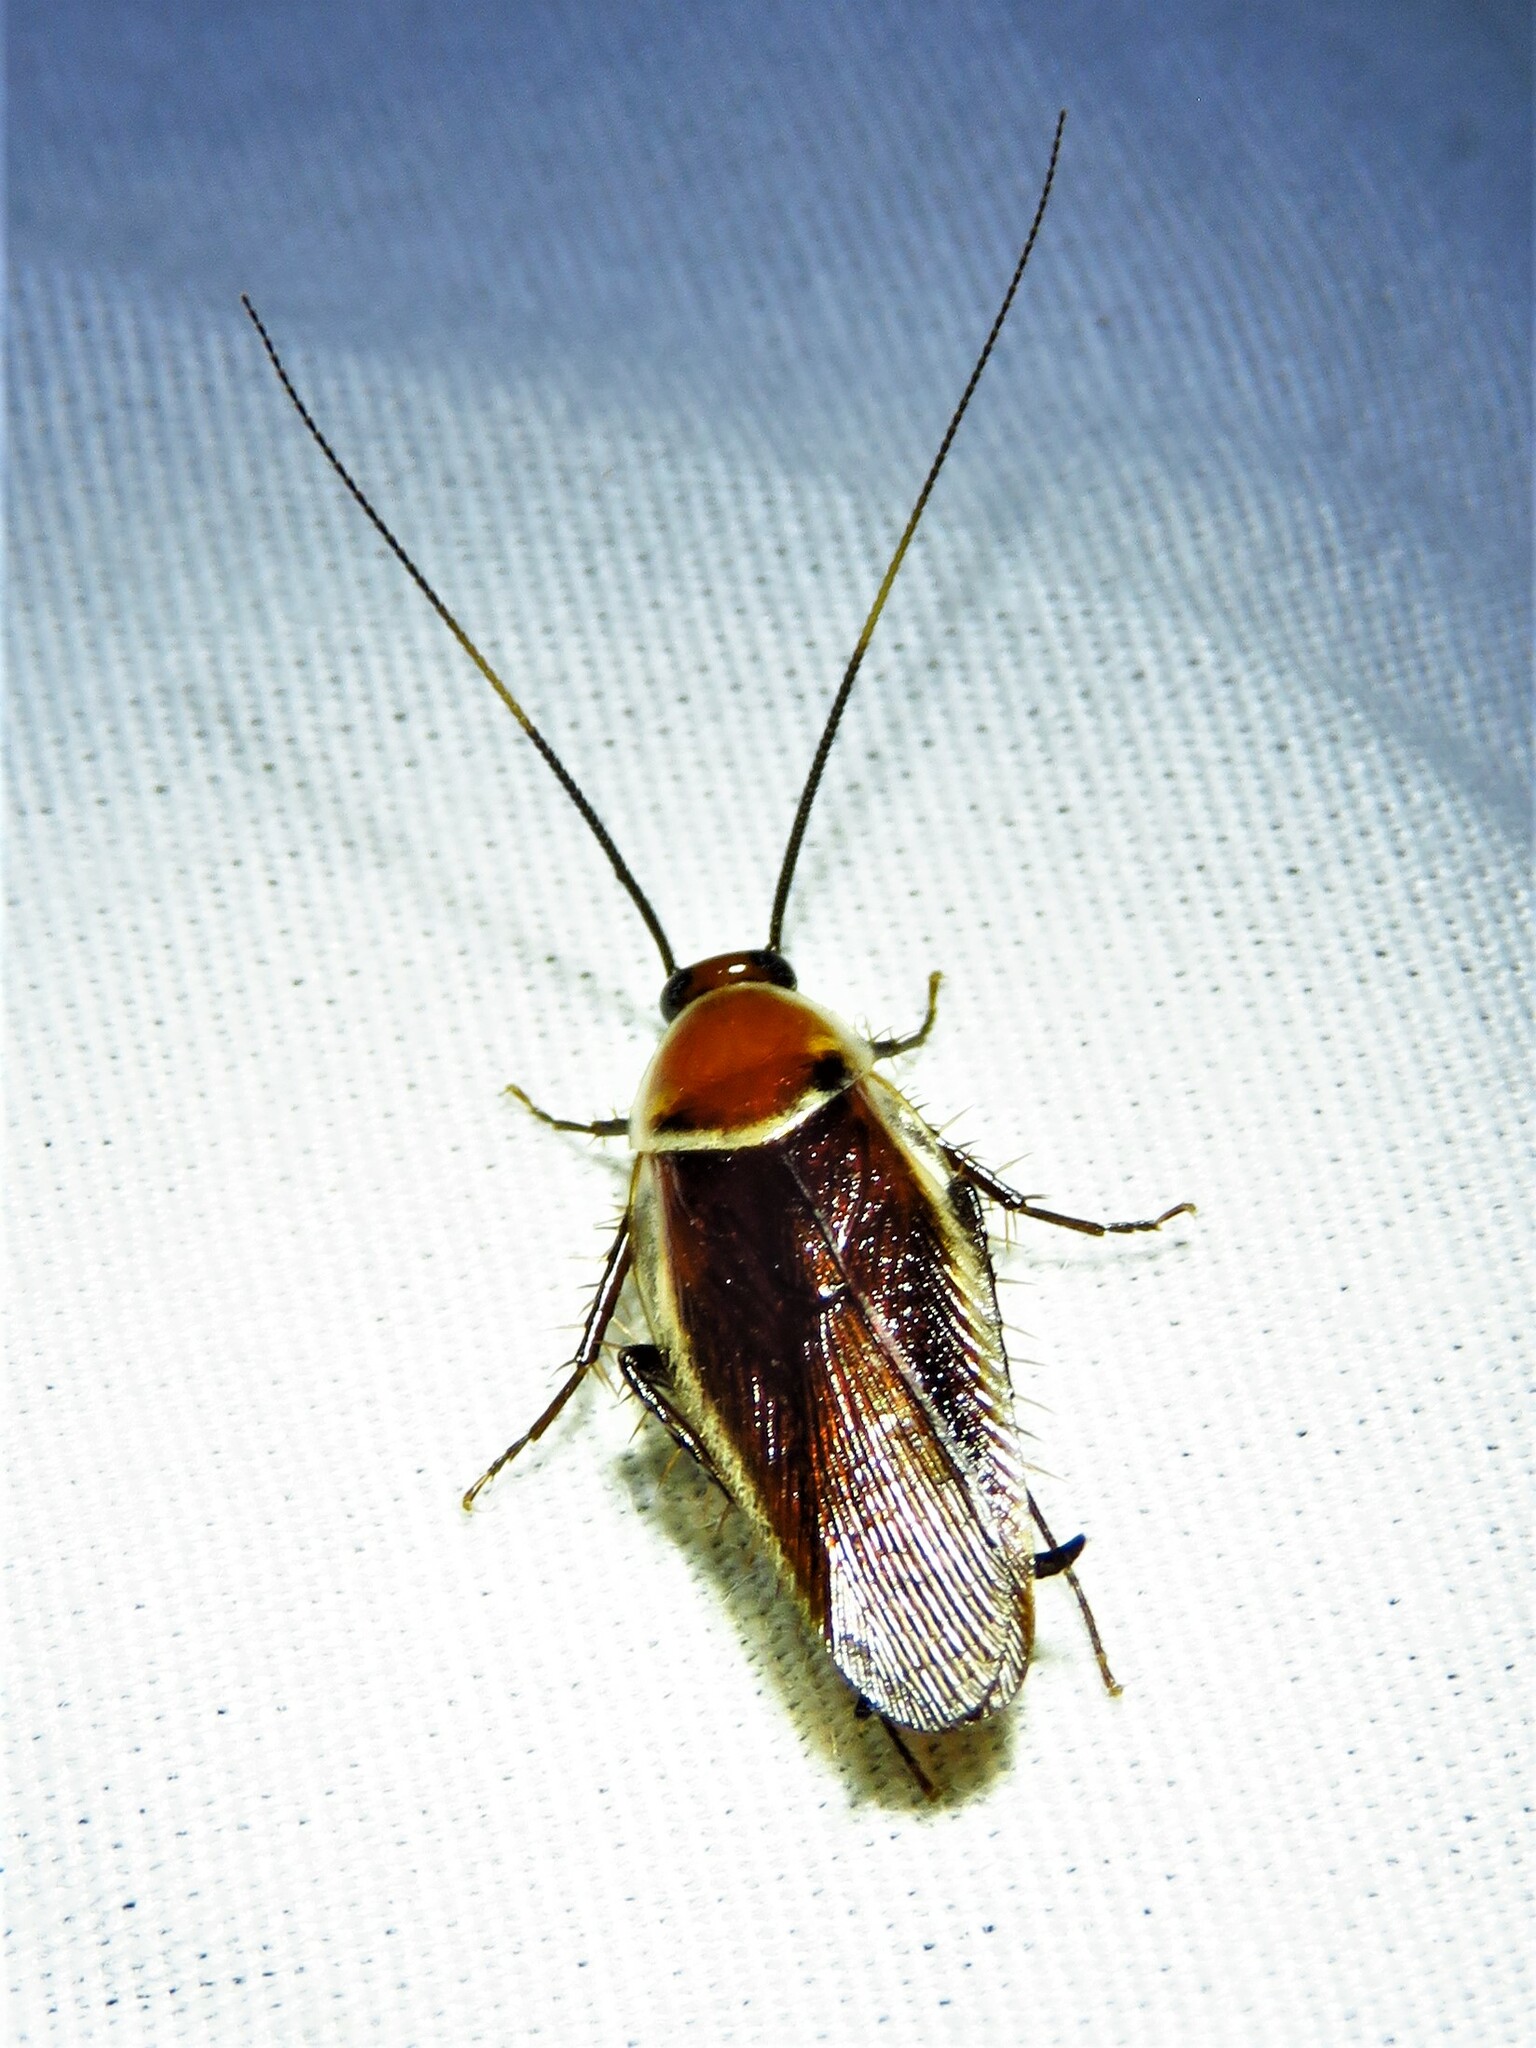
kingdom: Animalia
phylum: Arthropoda
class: Insecta
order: Blattodea
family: Ectobiidae
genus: Pseudomops
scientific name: Pseudomops septentrionalis
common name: Pale-bordered field cockroach
